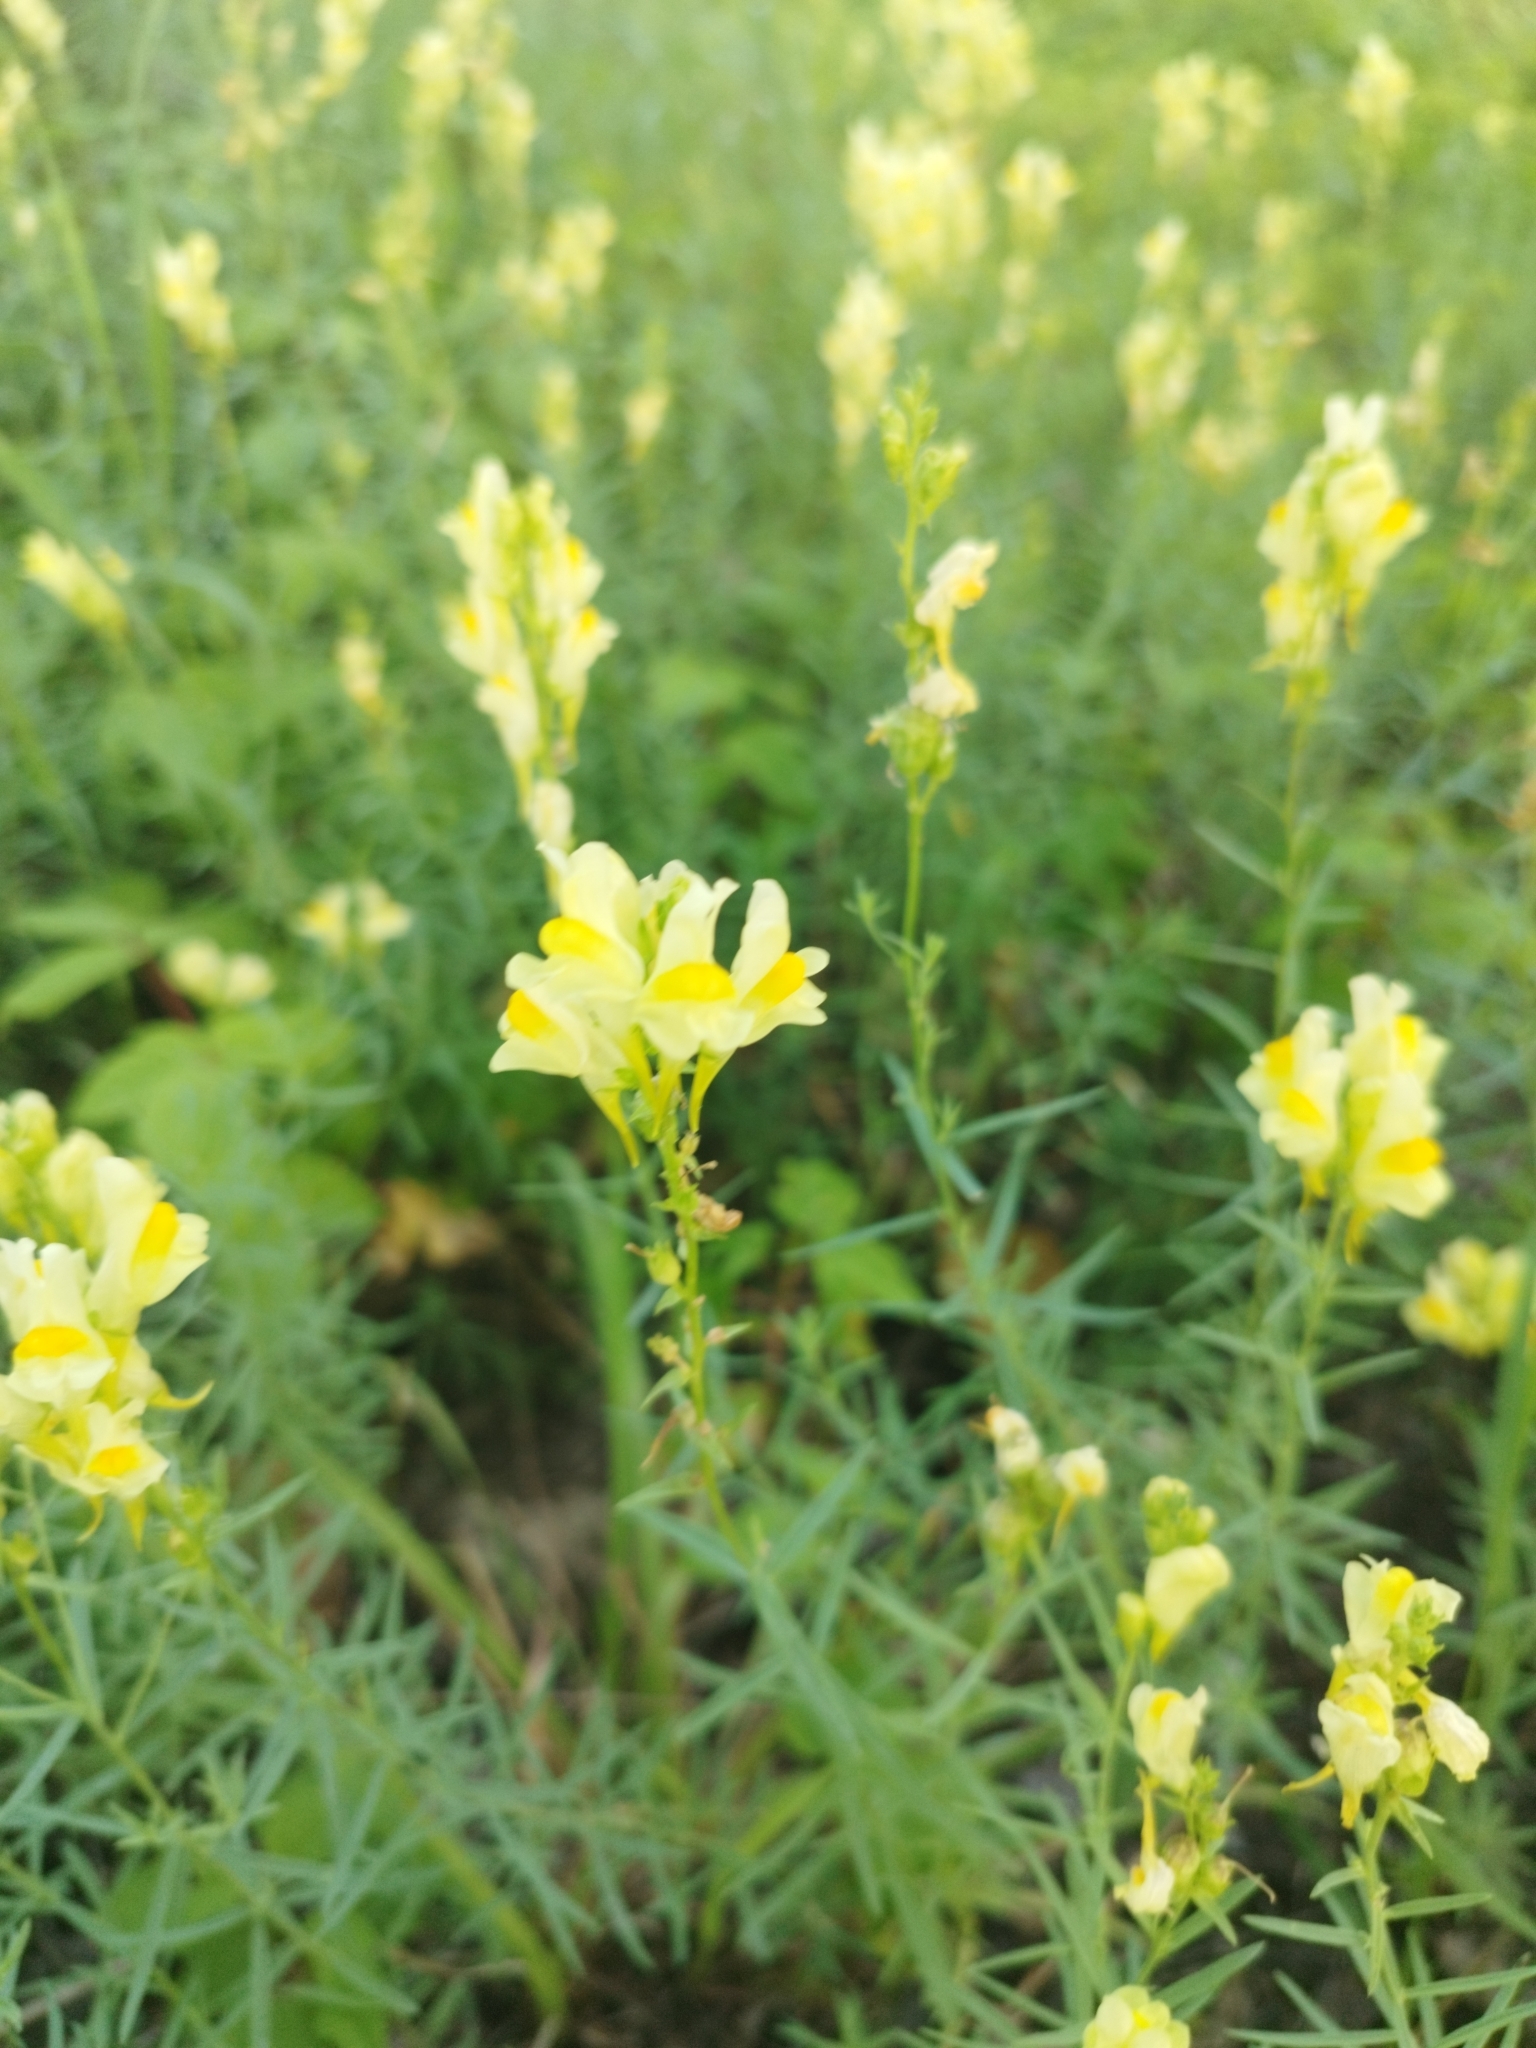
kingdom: Plantae
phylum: Tracheophyta
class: Magnoliopsida
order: Lamiales
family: Plantaginaceae
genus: Linaria
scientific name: Linaria vulgaris
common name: Butter and eggs
